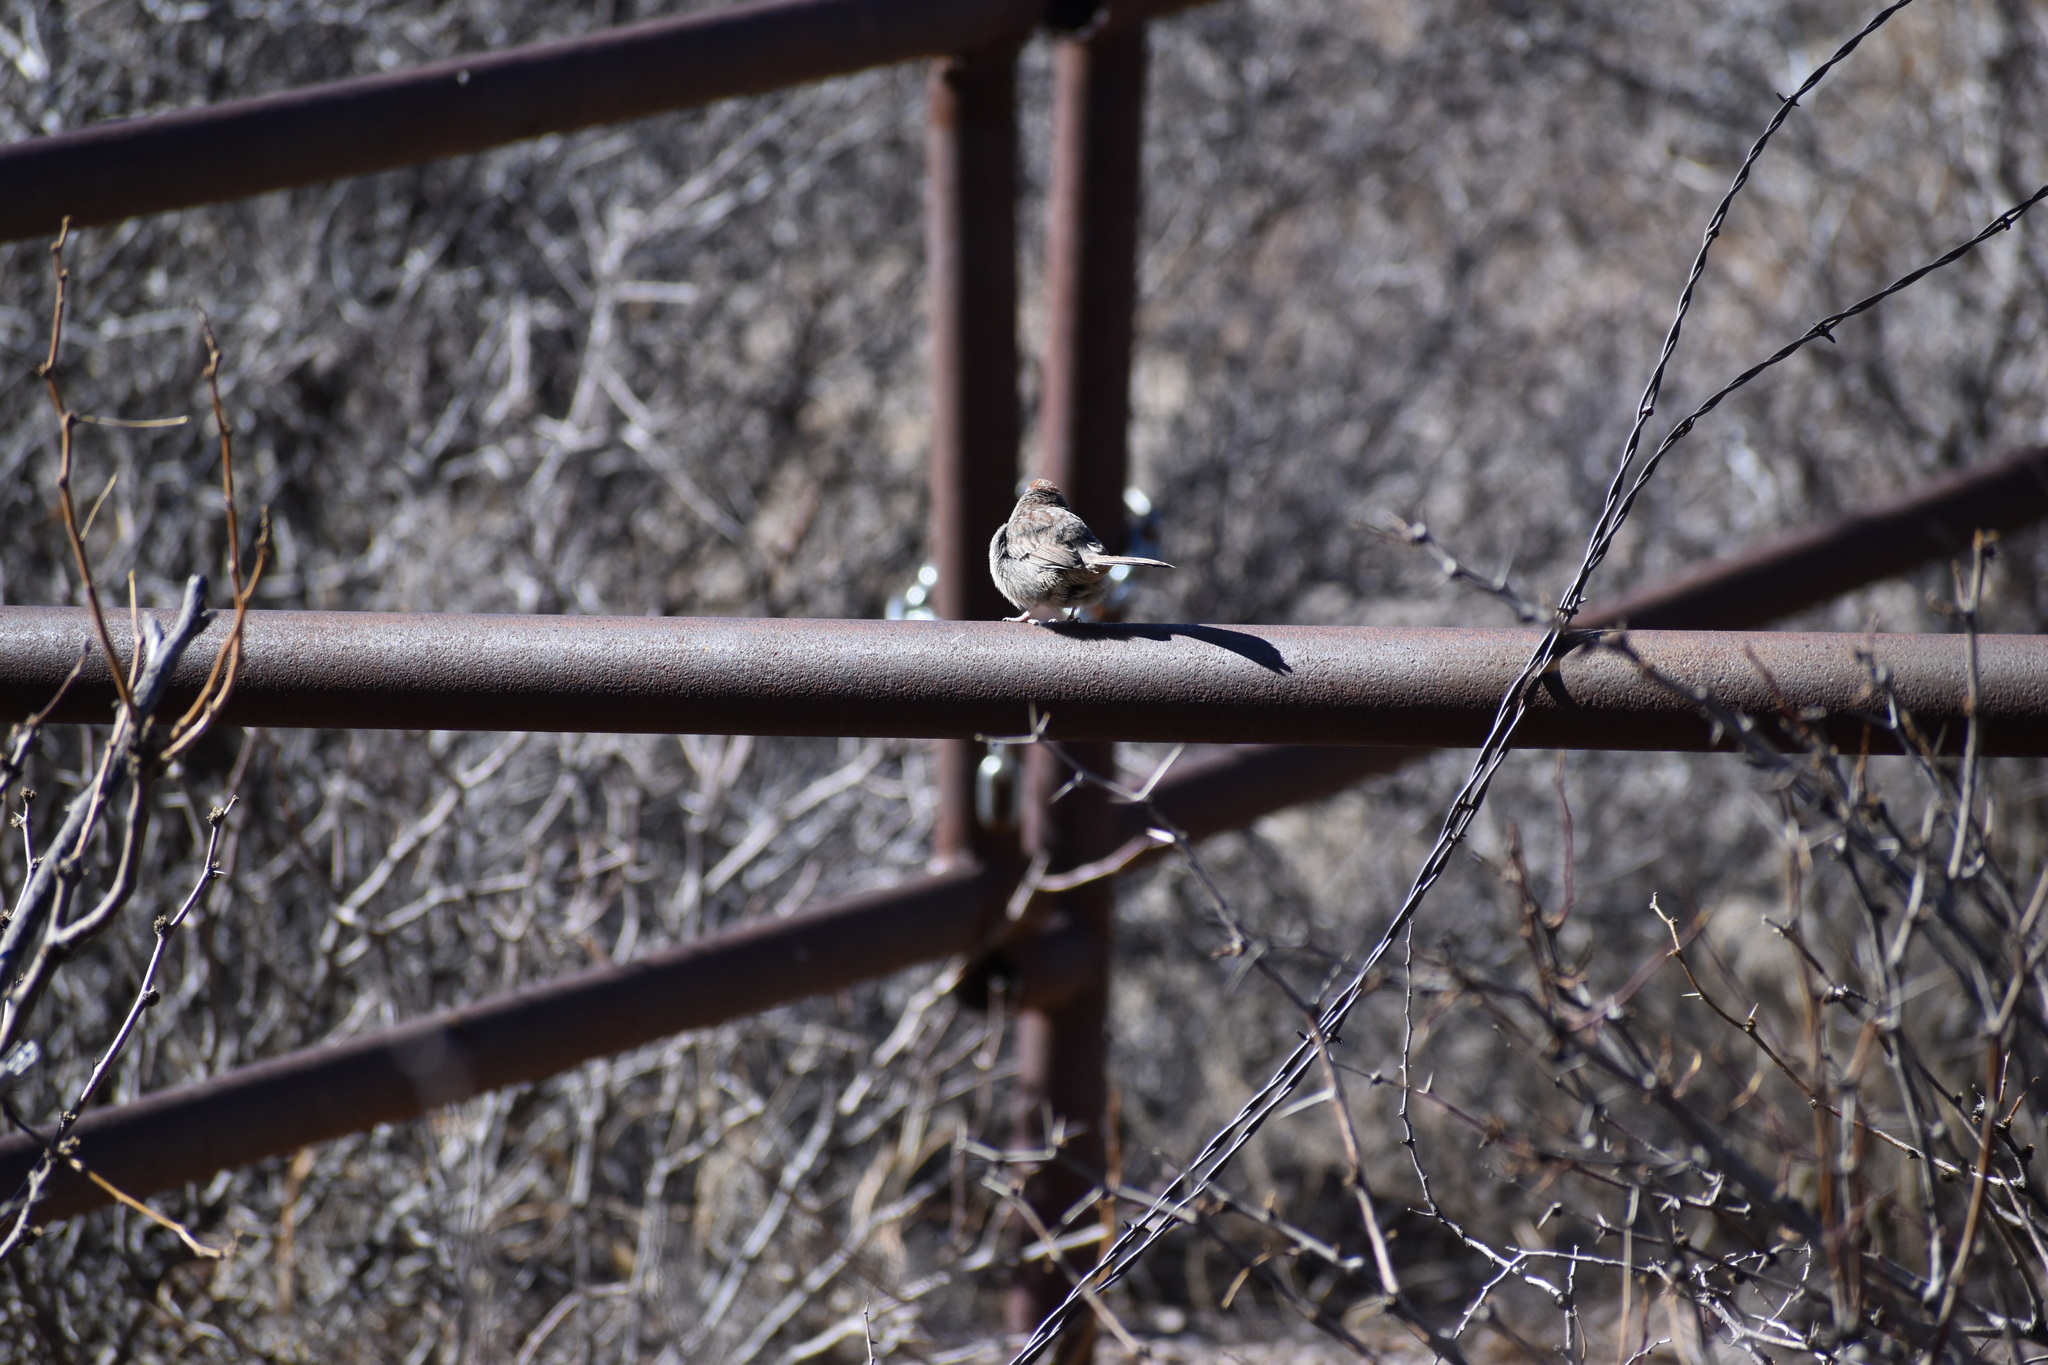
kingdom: Animalia
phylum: Chordata
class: Aves
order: Passeriformes
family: Passerellidae
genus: Aimophila
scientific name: Aimophila ruficeps
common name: Rufous-crowned sparrow
